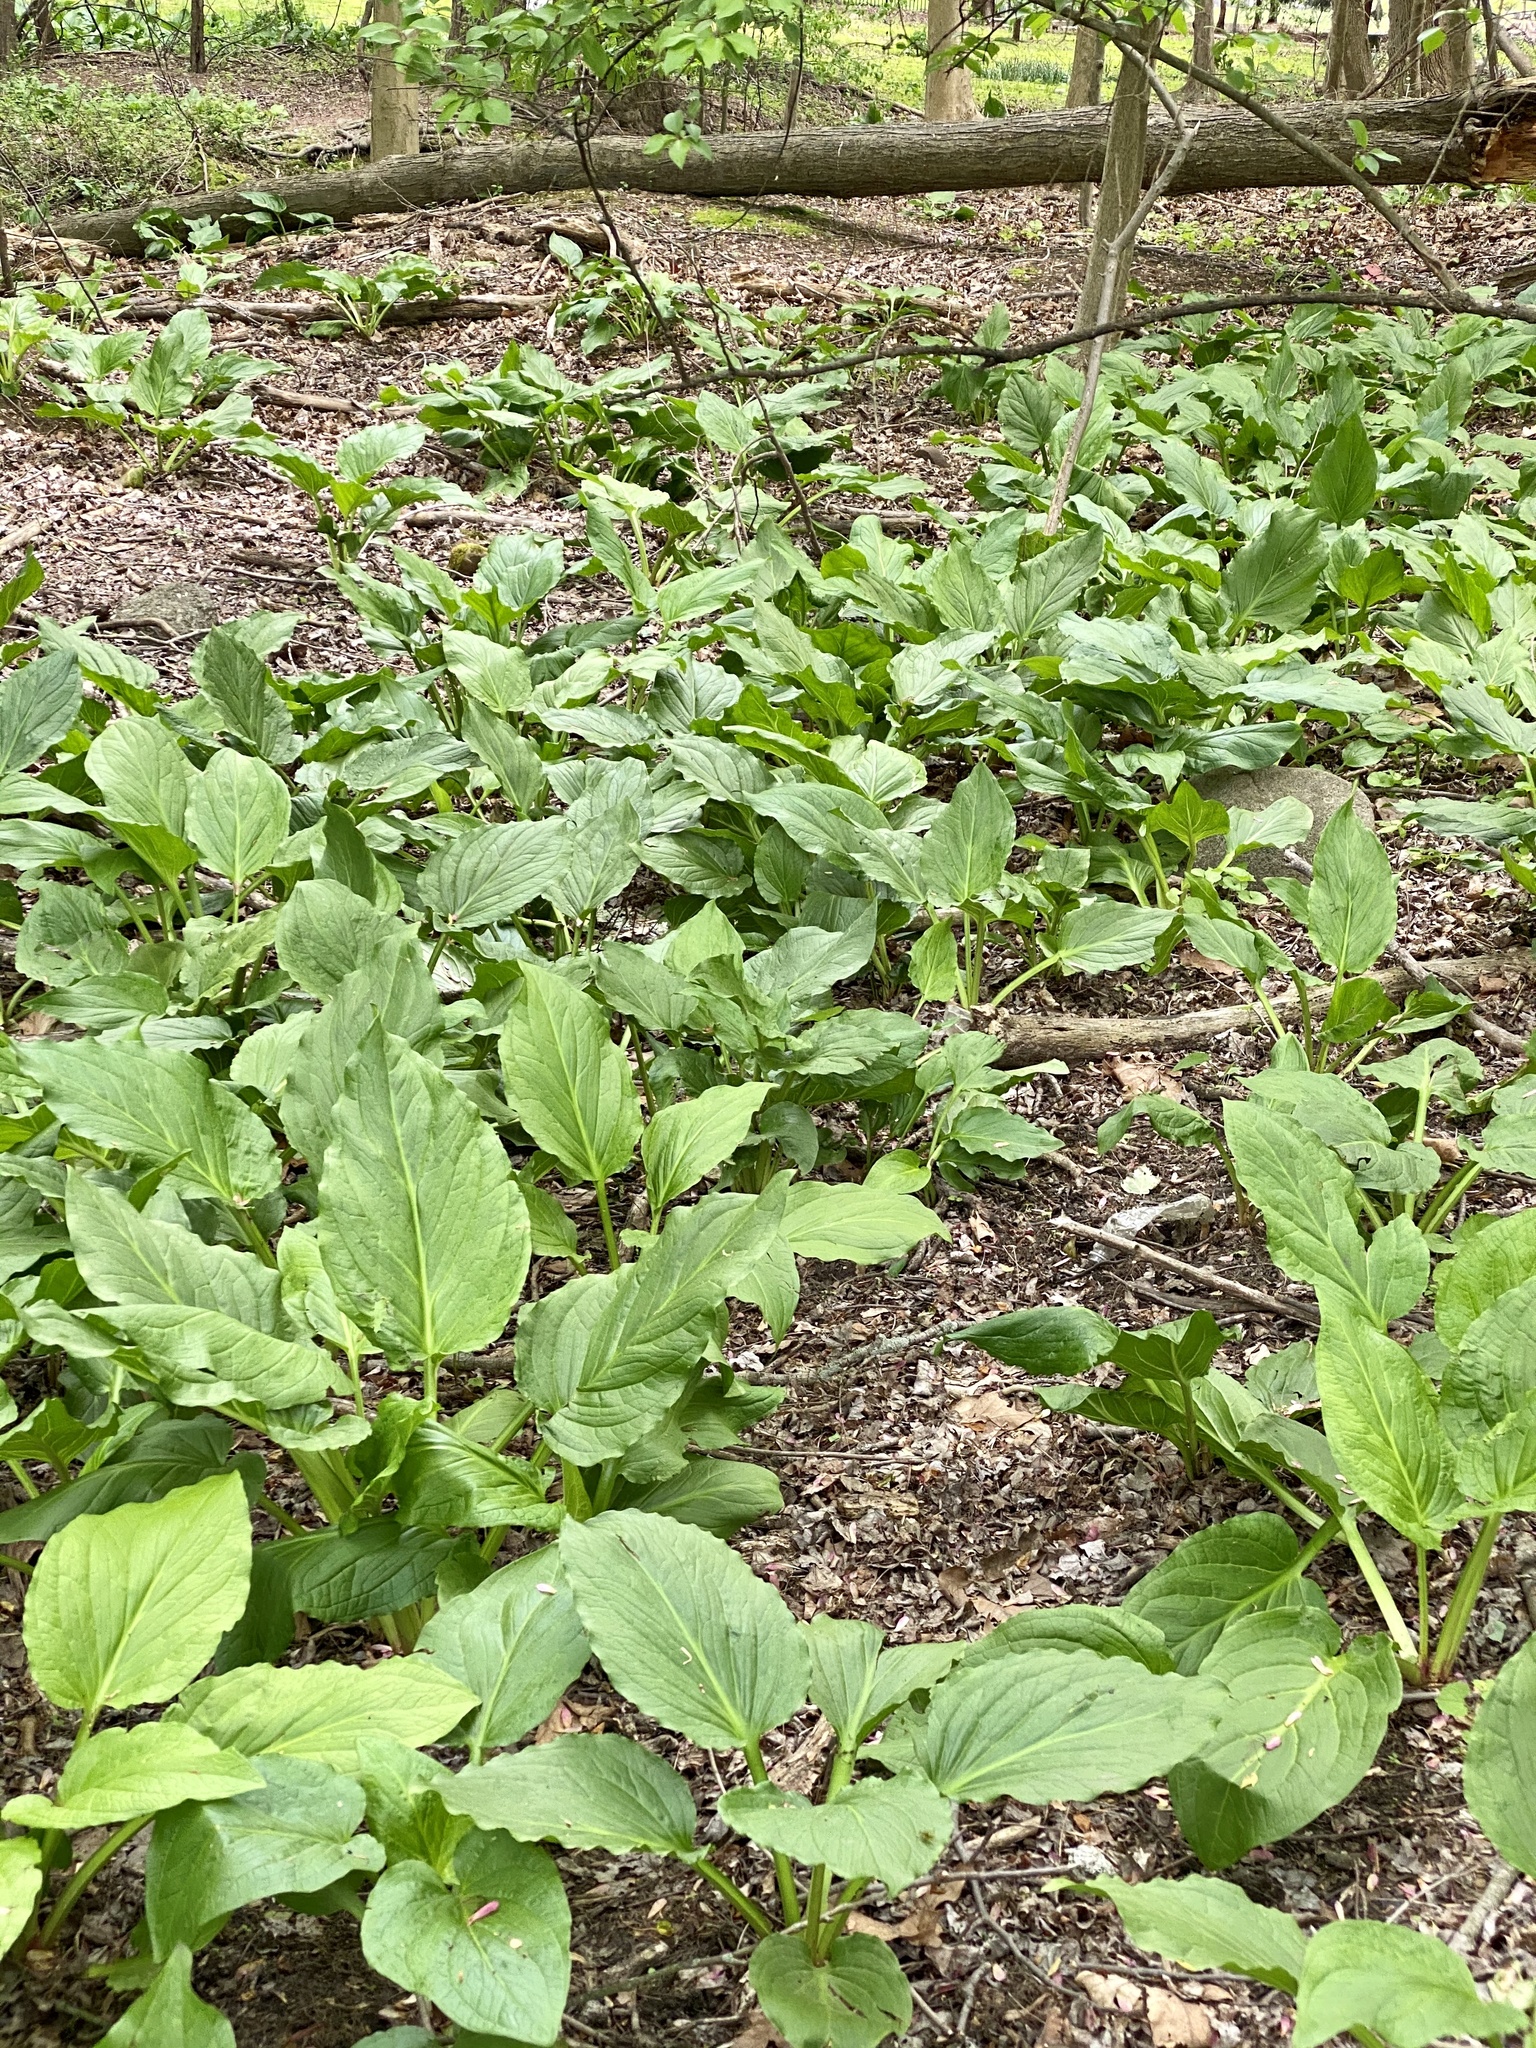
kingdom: Plantae
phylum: Tracheophyta
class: Liliopsida
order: Alismatales
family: Araceae
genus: Symplocarpus
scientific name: Symplocarpus foetidus
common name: Eastern skunk cabbage
